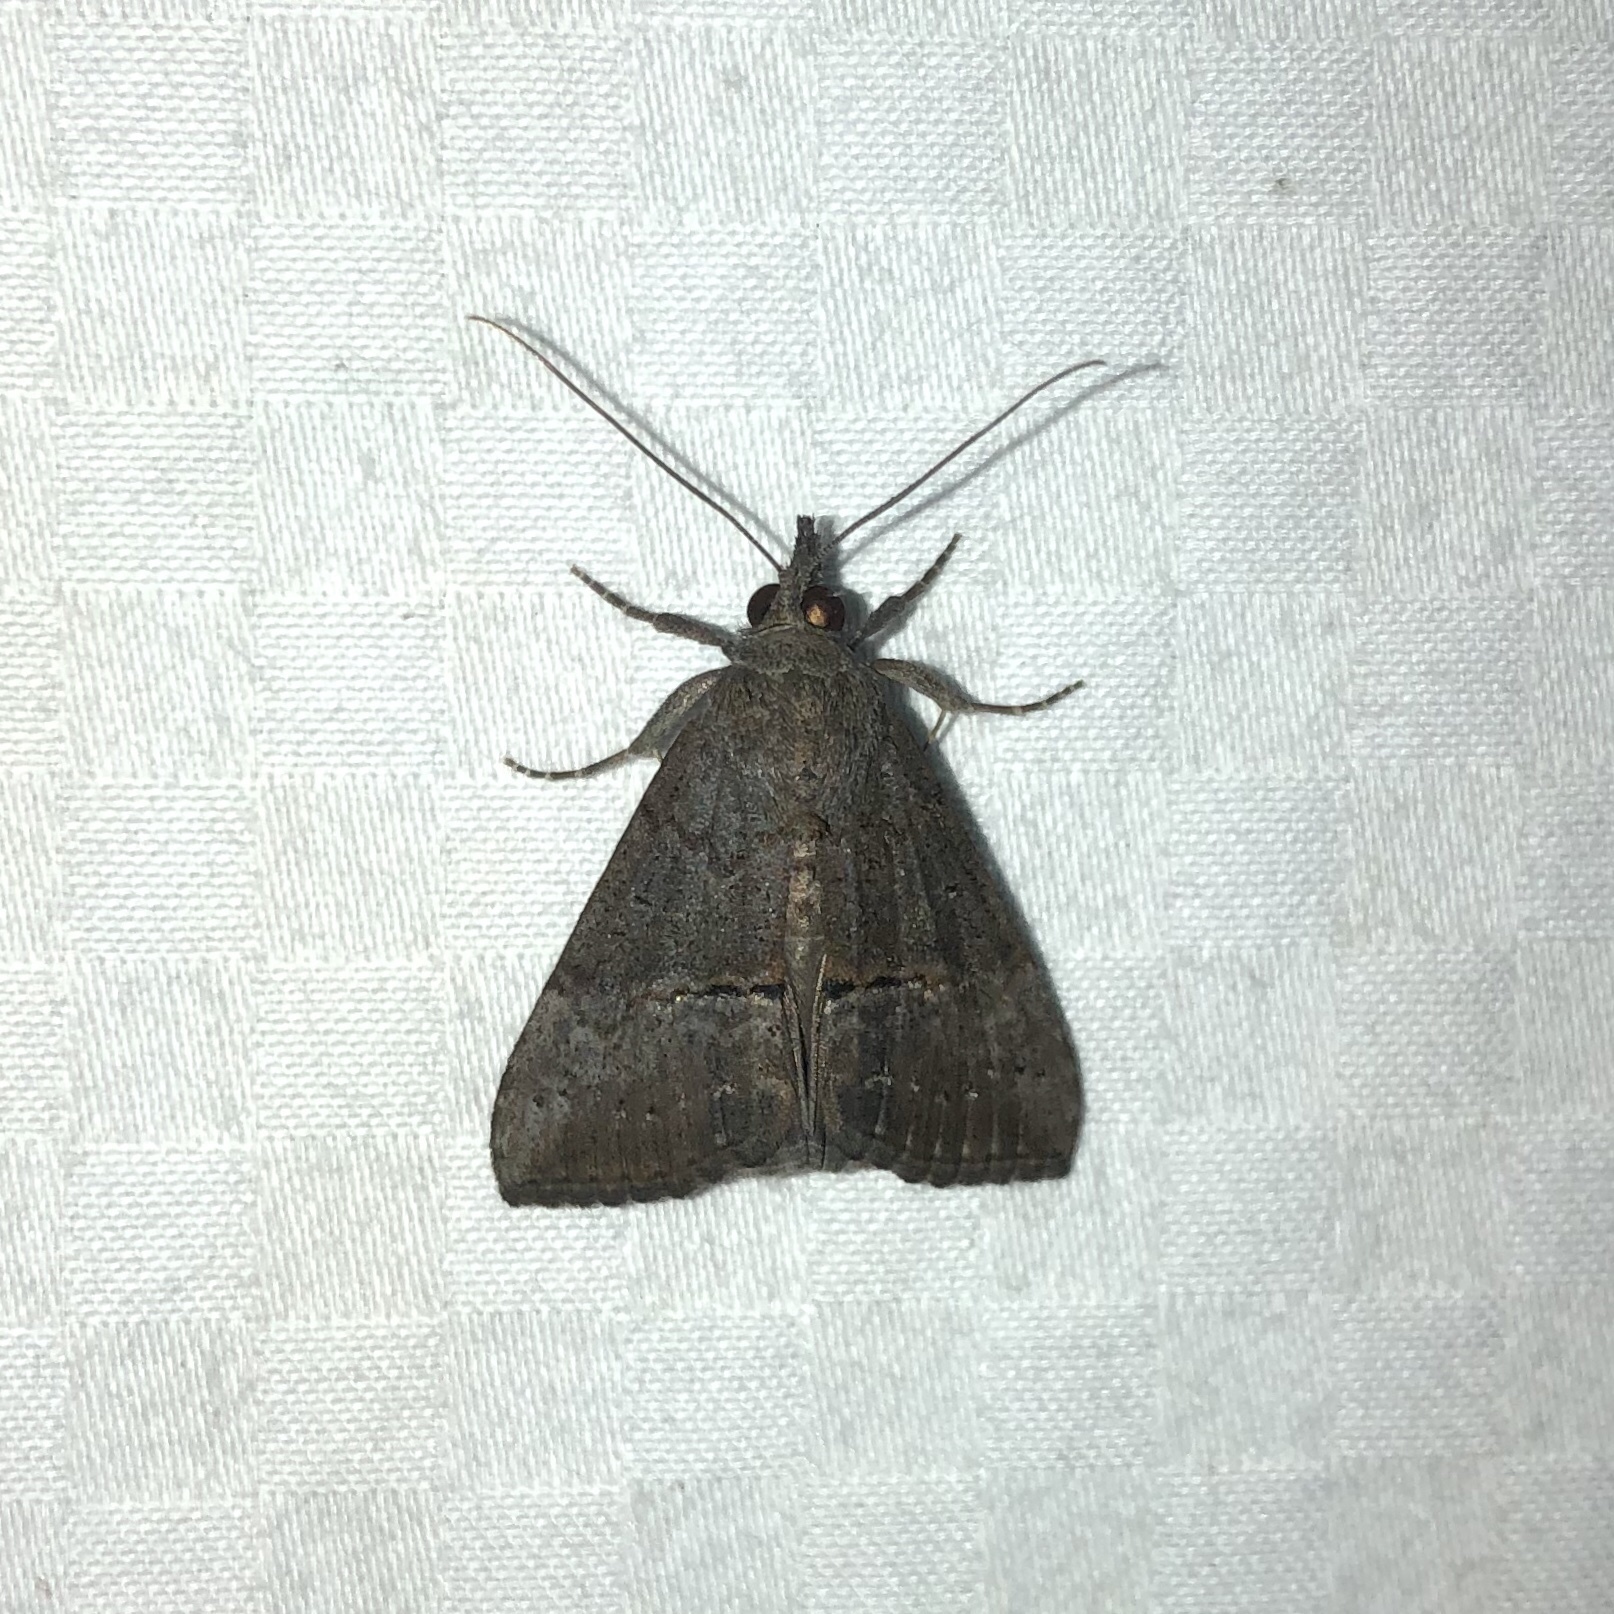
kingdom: Animalia
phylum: Arthropoda
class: Insecta
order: Lepidoptera
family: Erebidae
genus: Hypena
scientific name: Hypena scabra
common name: Green cloverworm
